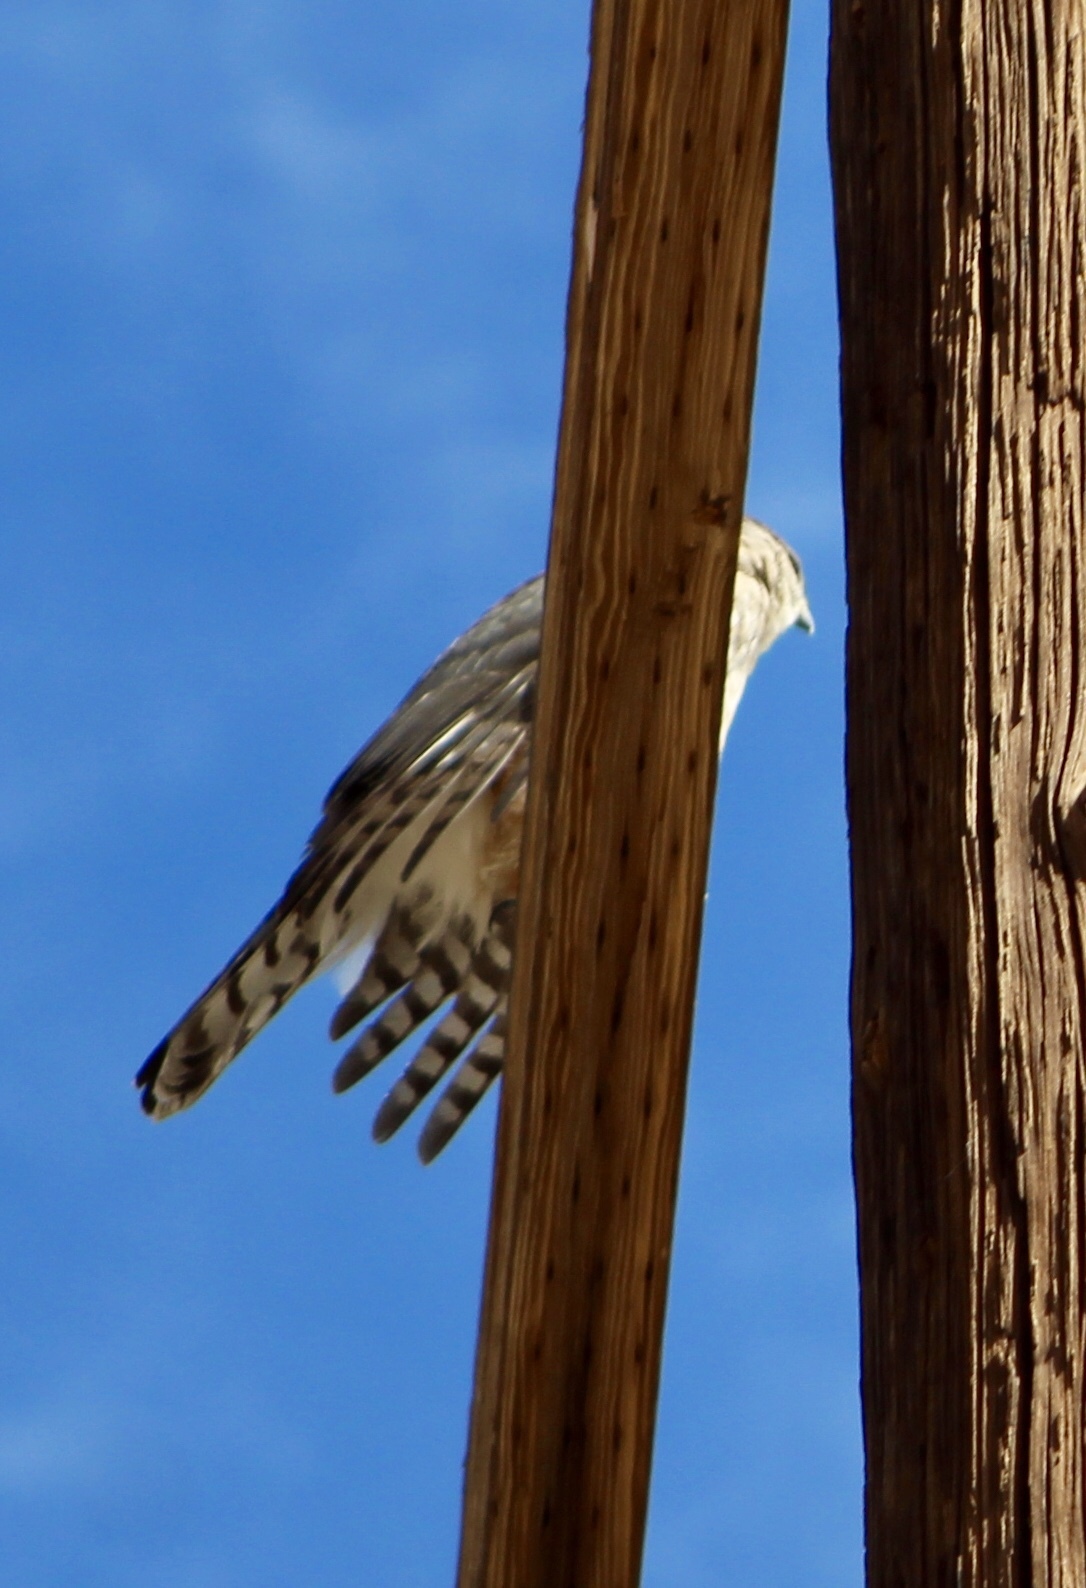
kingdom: Animalia
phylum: Chordata
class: Aves
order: Accipitriformes
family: Accipitridae
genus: Accipiter
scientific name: Accipiter cooperii
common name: Cooper's hawk
